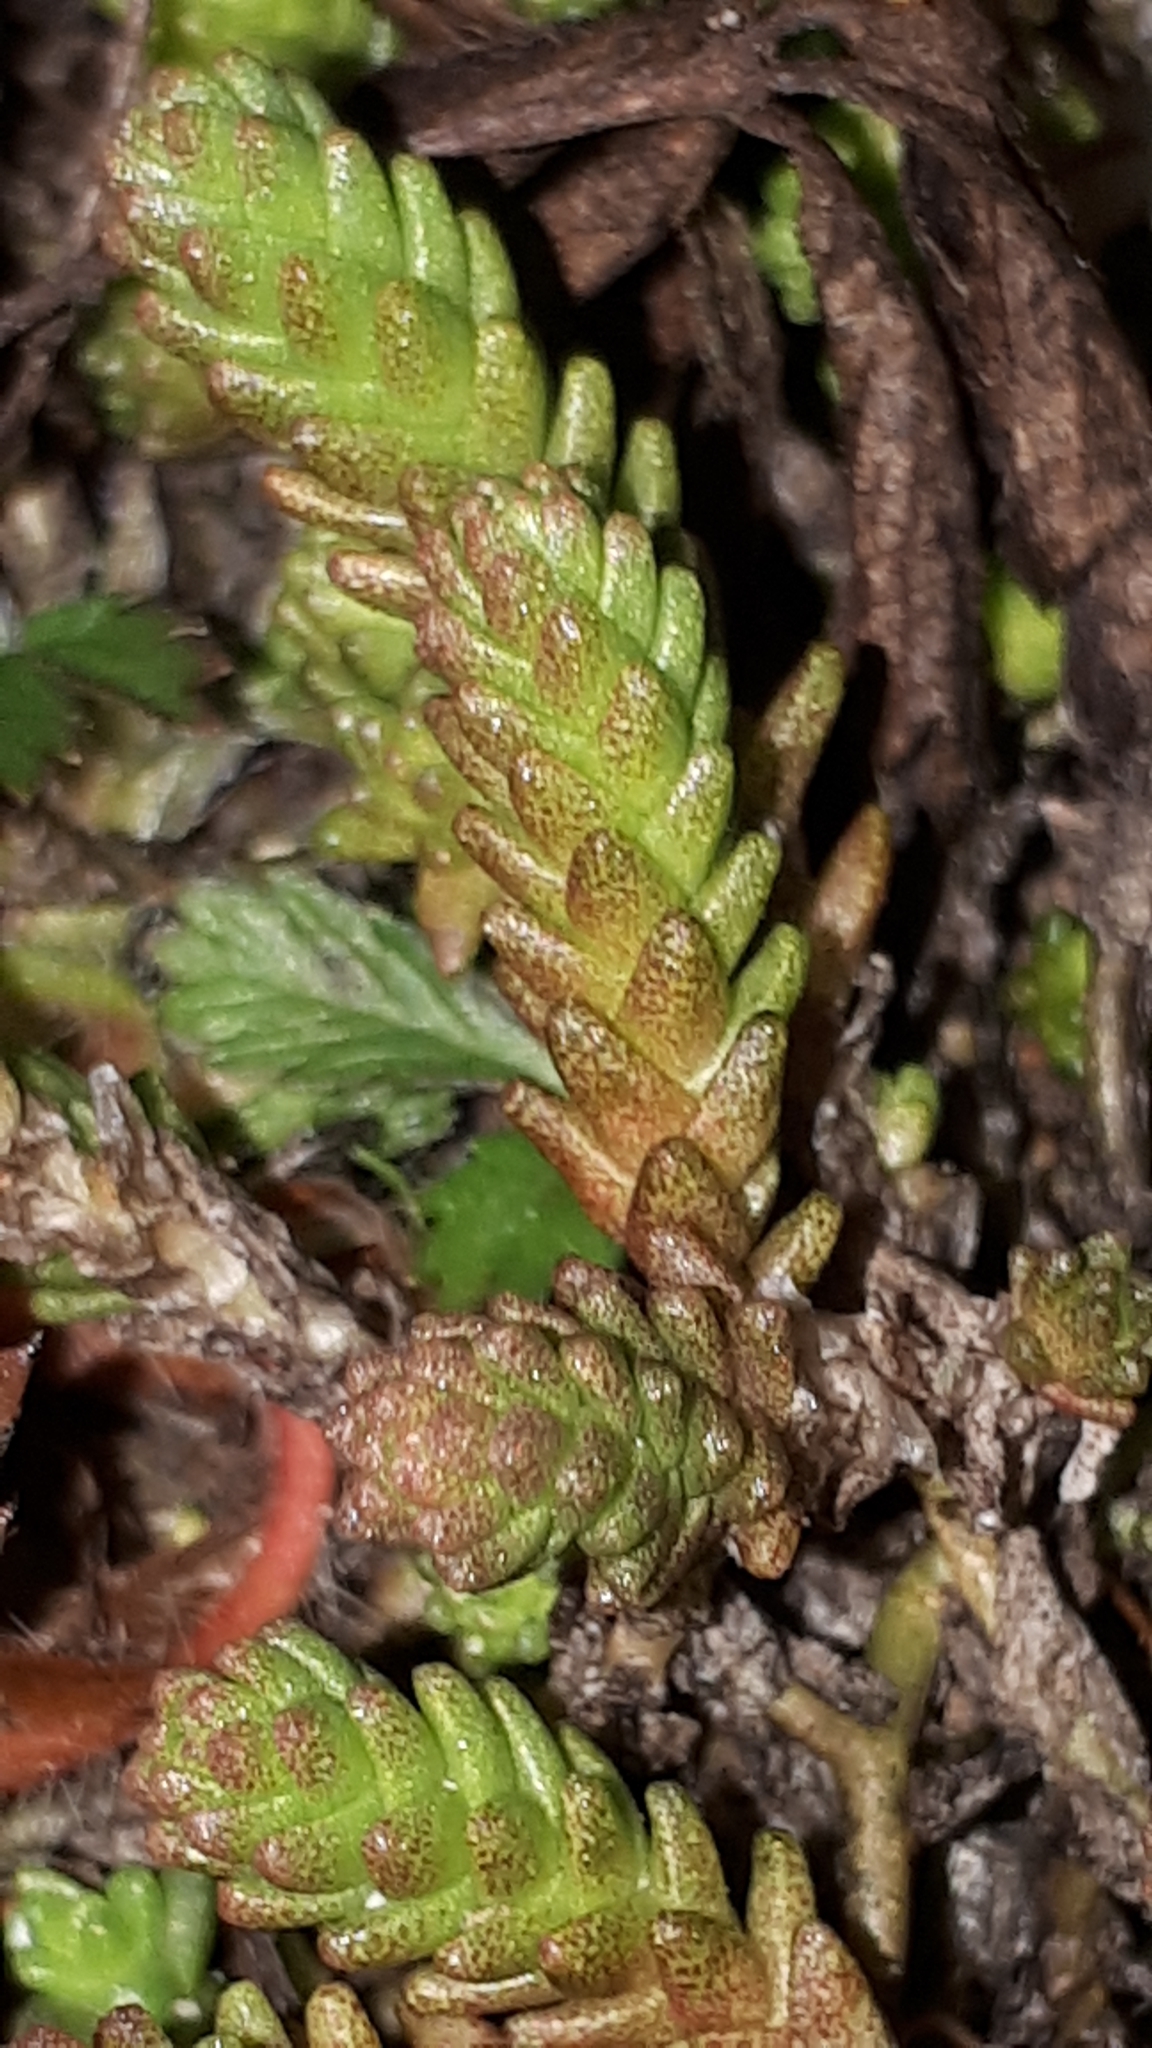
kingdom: Plantae
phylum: Tracheophyta
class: Magnoliopsida
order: Saxifragales
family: Crassulaceae
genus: Sedum
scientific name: Sedum acre
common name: Biting stonecrop
